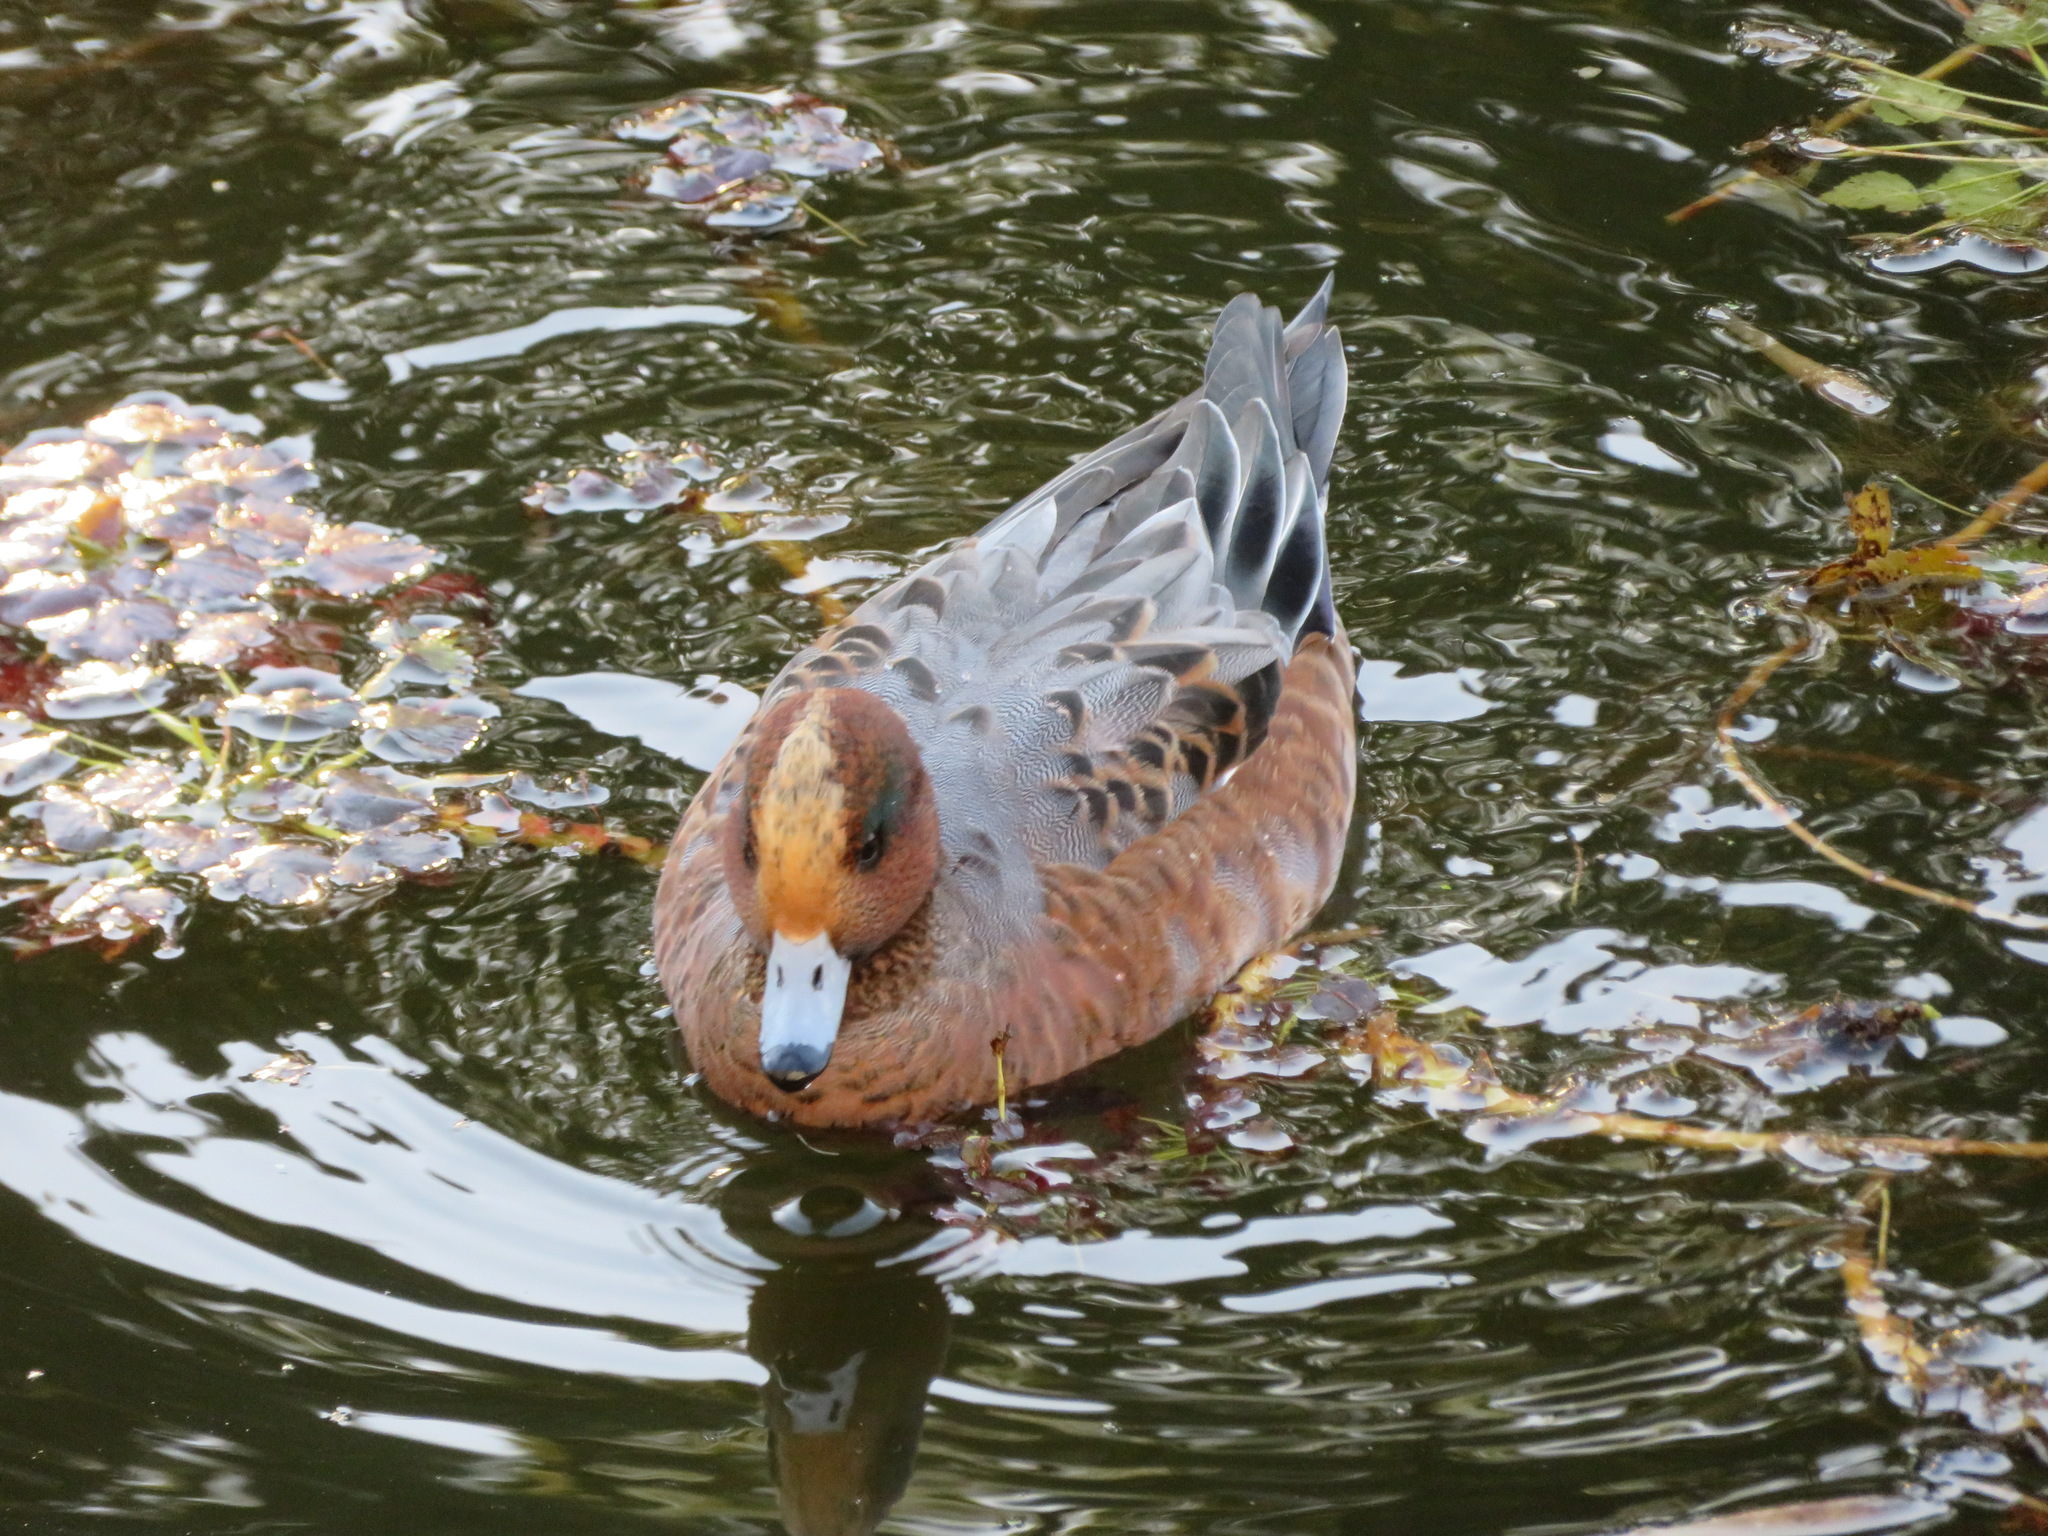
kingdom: Animalia
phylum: Chordata
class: Aves
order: Anseriformes
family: Anatidae
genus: Mareca
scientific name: Mareca penelope
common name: Eurasian wigeon
